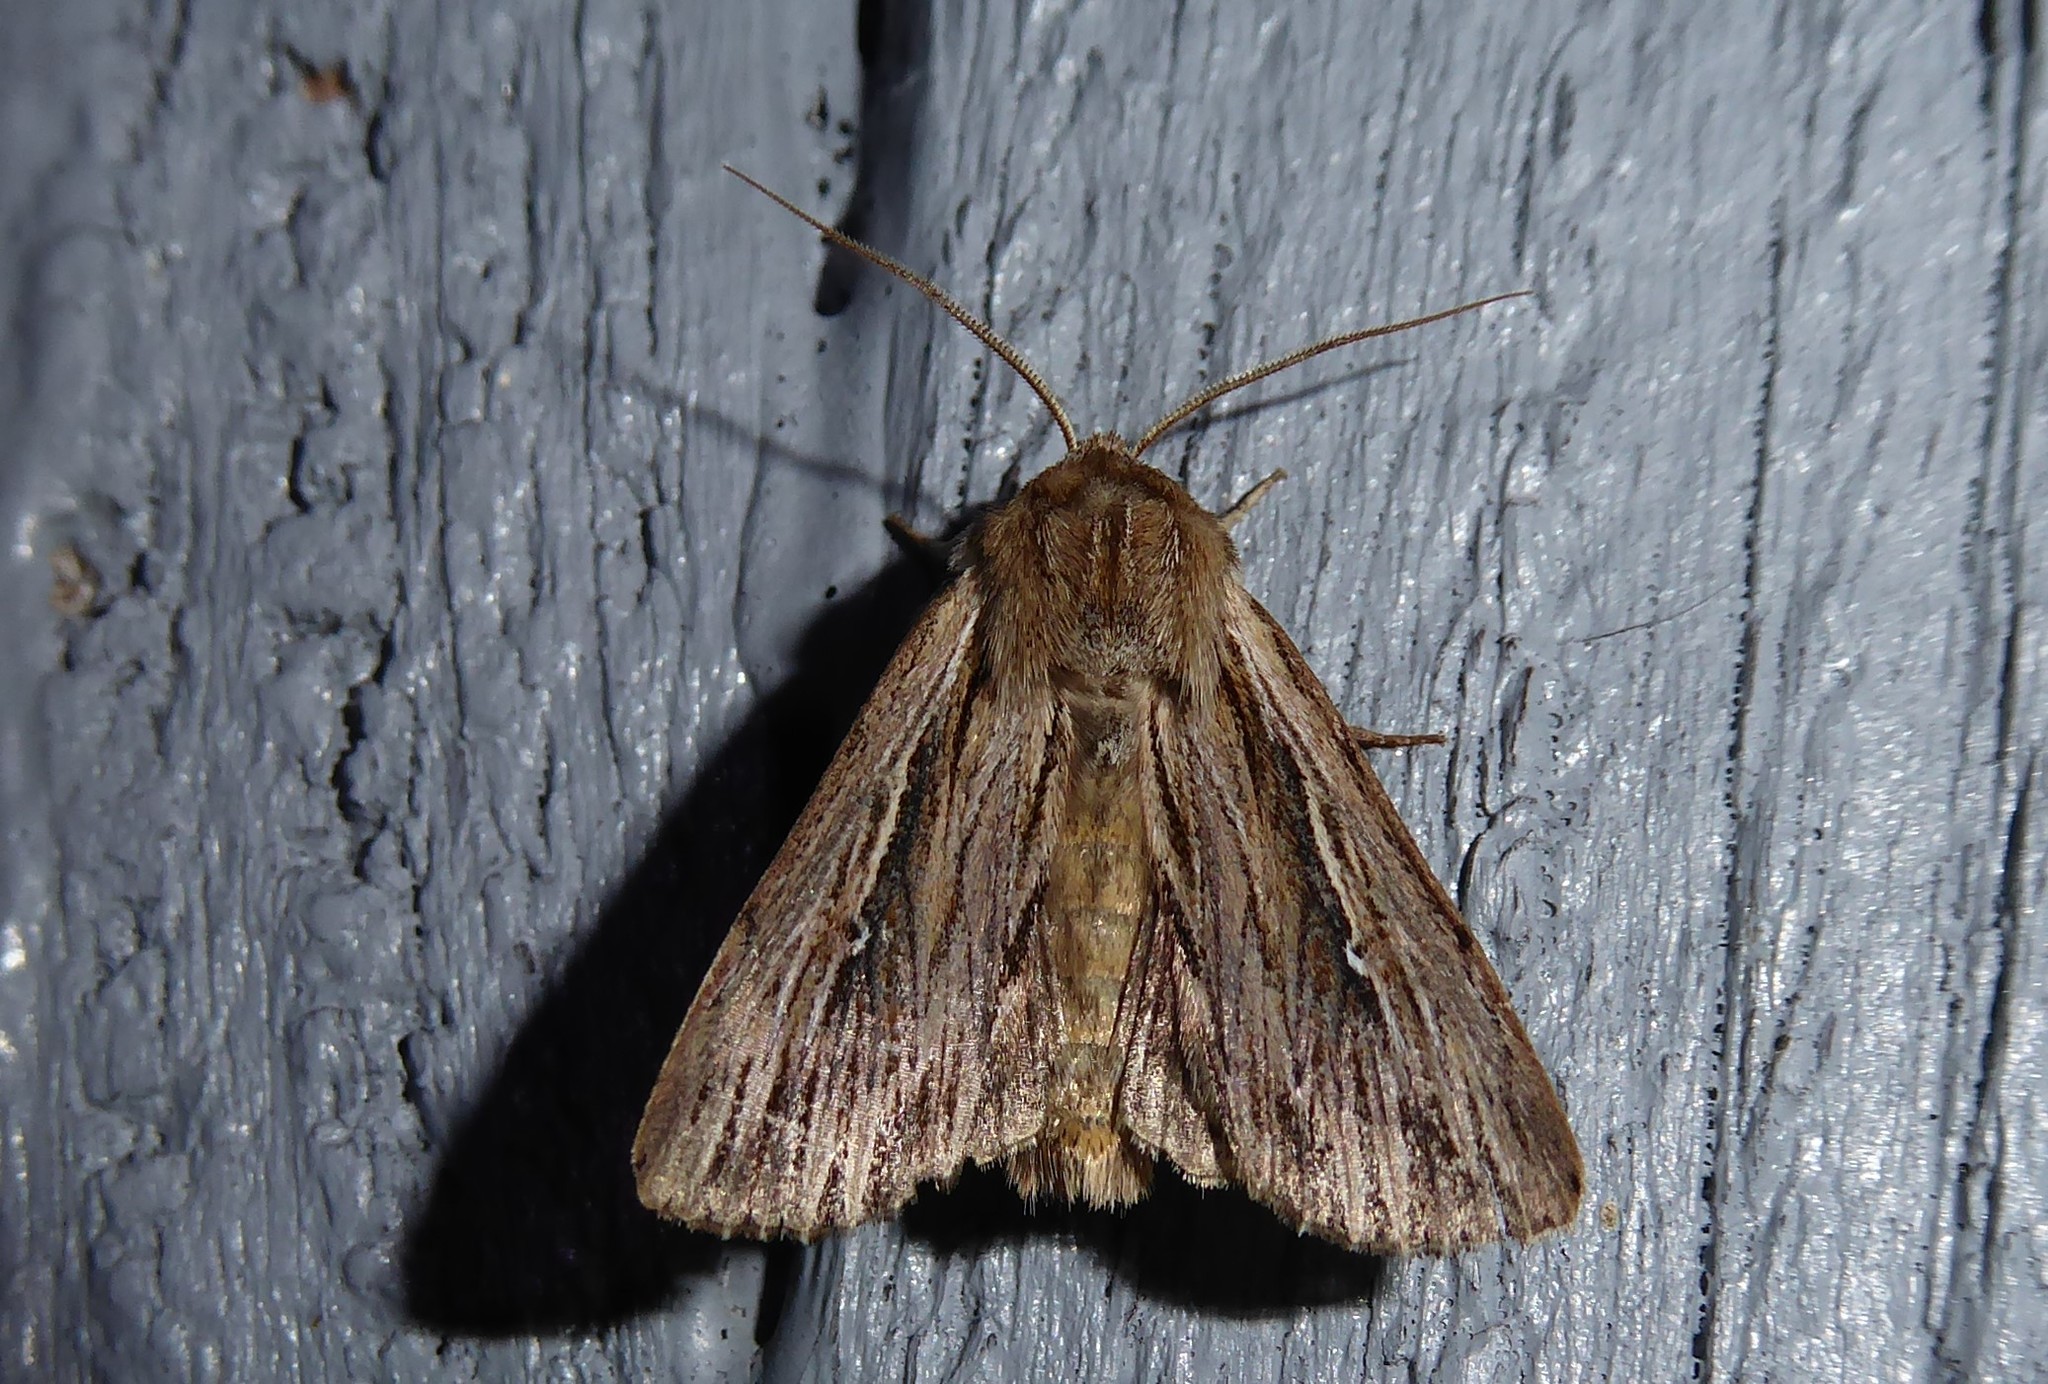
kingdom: Animalia
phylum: Arthropoda
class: Insecta
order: Lepidoptera
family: Noctuidae
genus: Persectania
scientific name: Persectania aversa
